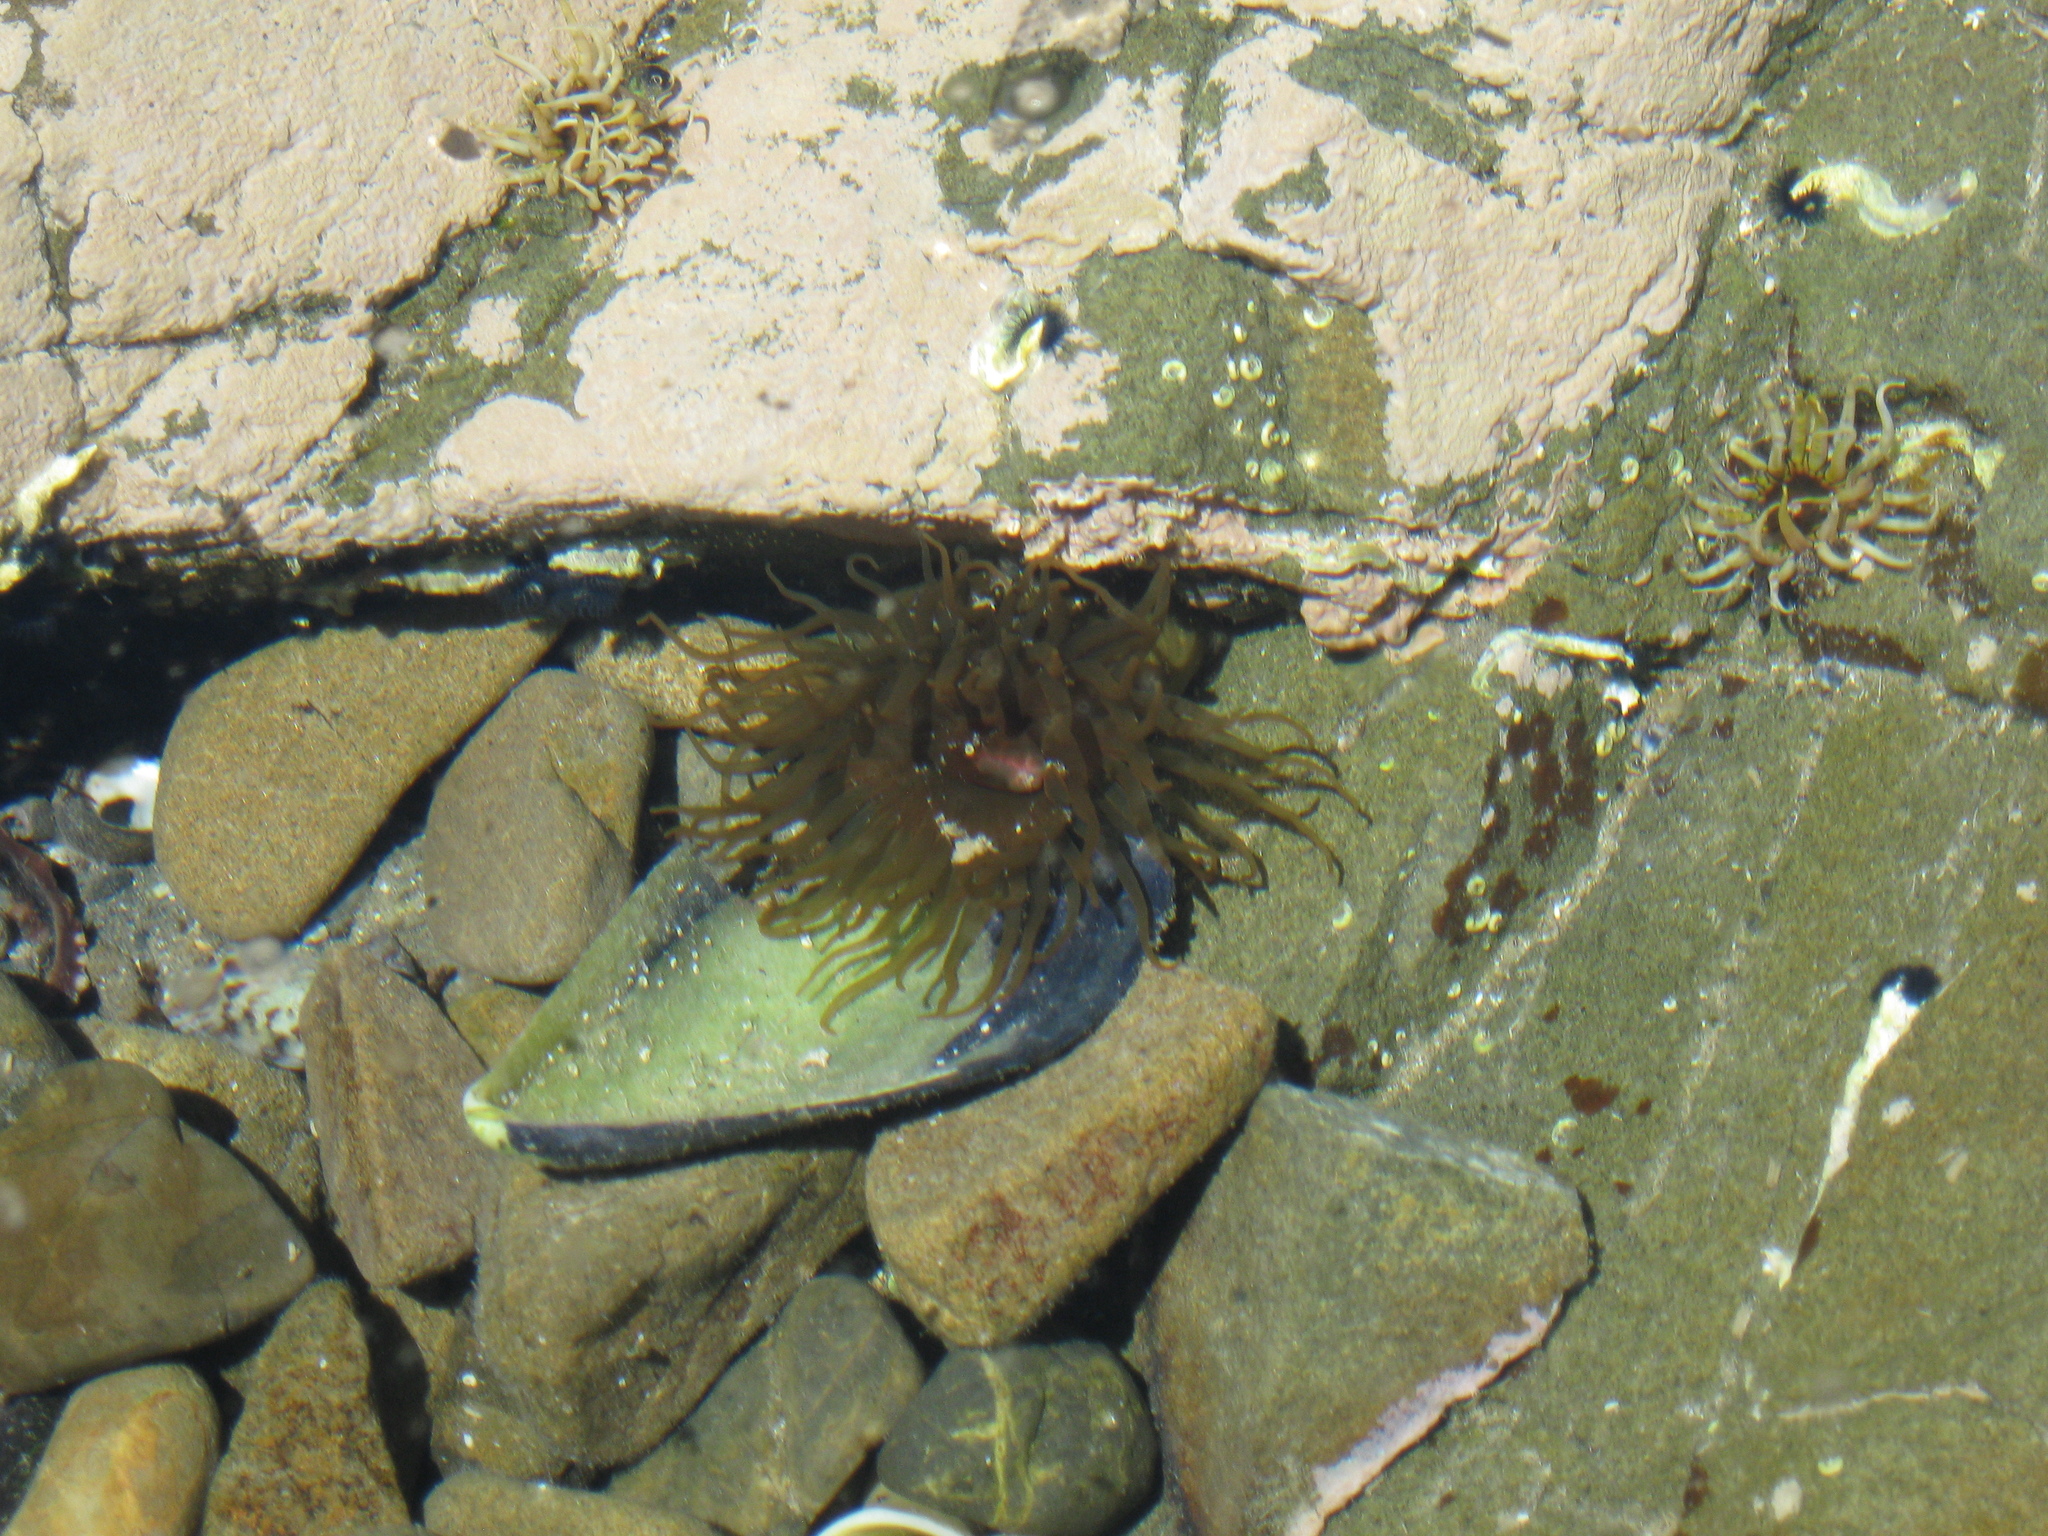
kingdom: Animalia
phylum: Cnidaria
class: Anthozoa
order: Actiniaria
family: Actiniidae
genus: Isactinia
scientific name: Isactinia olivacea
